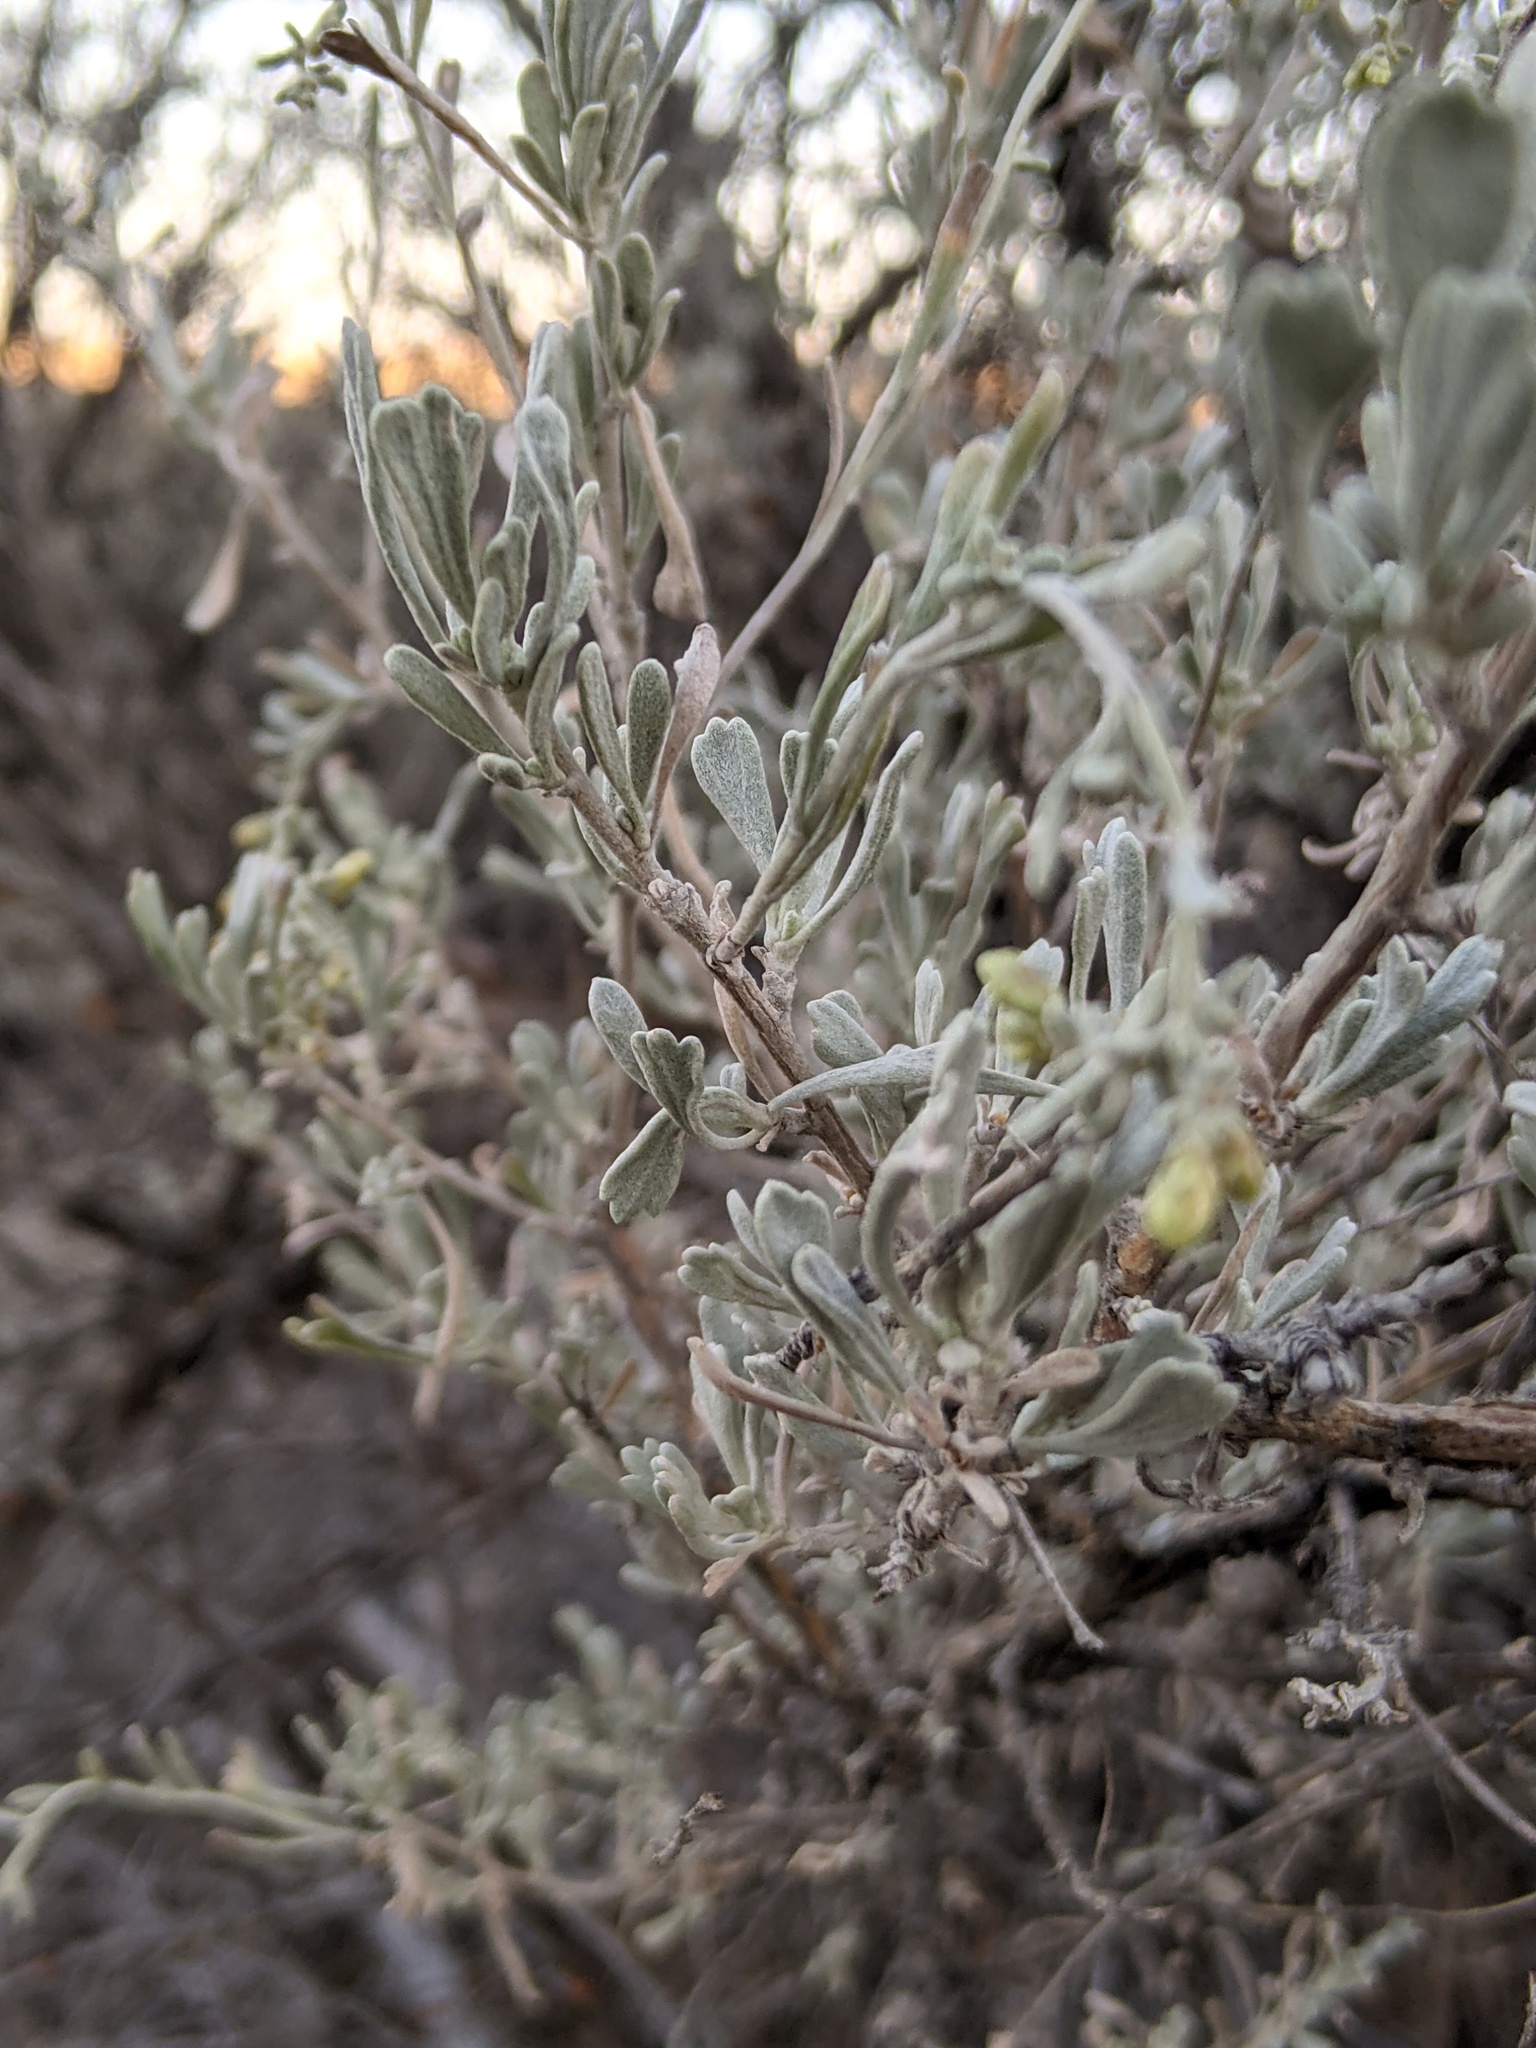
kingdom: Plantae
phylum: Tracheophyta
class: Magnoliopsida
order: Asterales
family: Asteraceae
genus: Artemisia
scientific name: Artemisia tridentata
